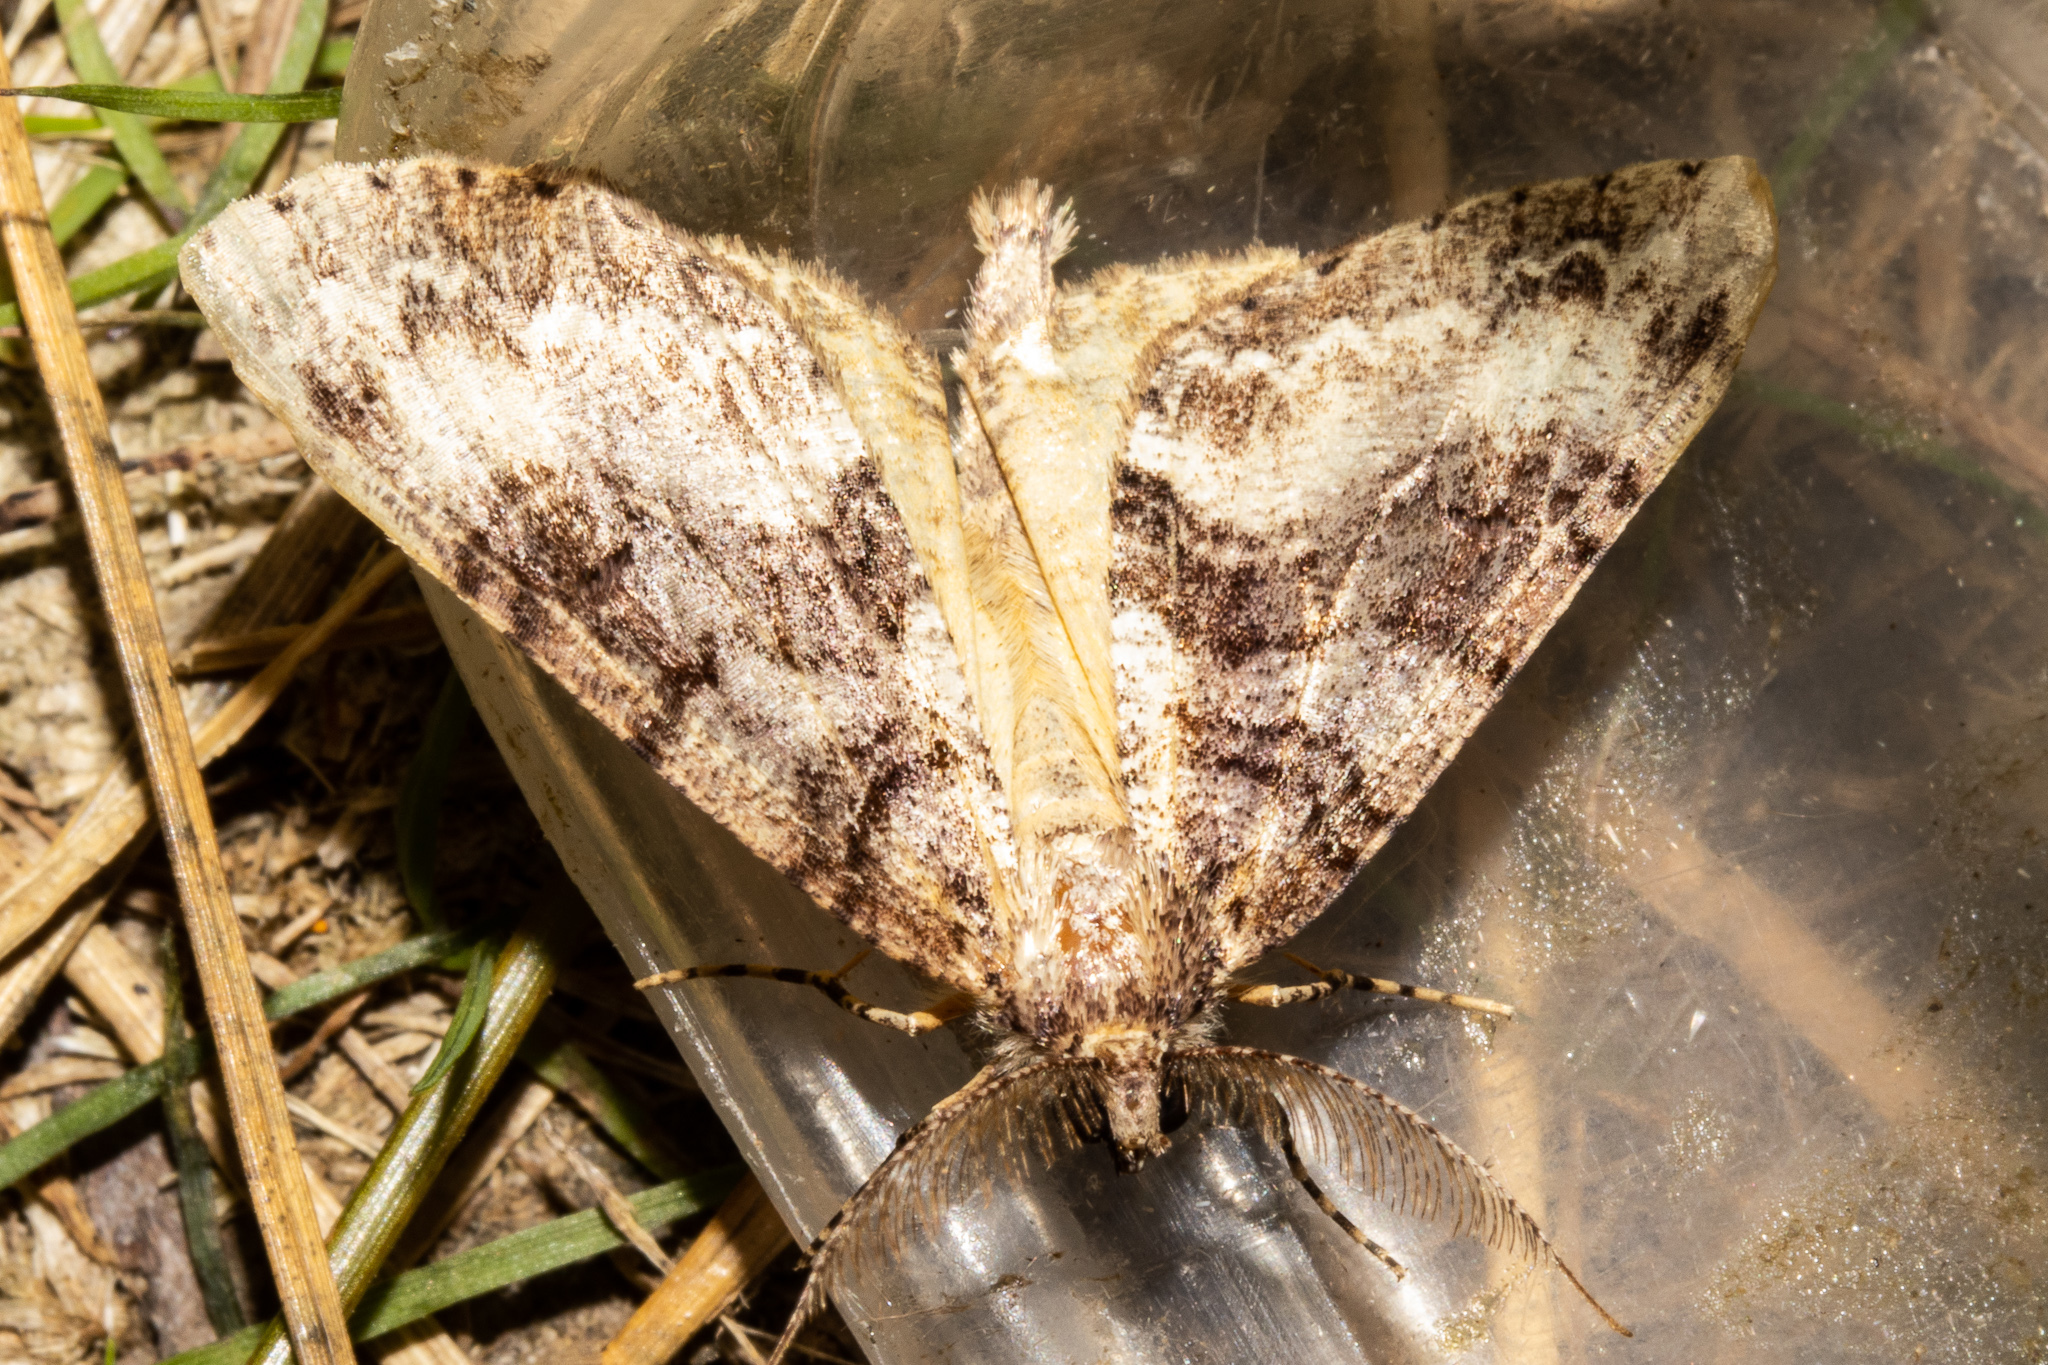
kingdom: Animalia
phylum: Arthropoda
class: Insecta
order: Lepidoptera
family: Geometridae
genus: Pseudocoremia
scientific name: Pseudocoremia suavis
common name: Common forest looper
